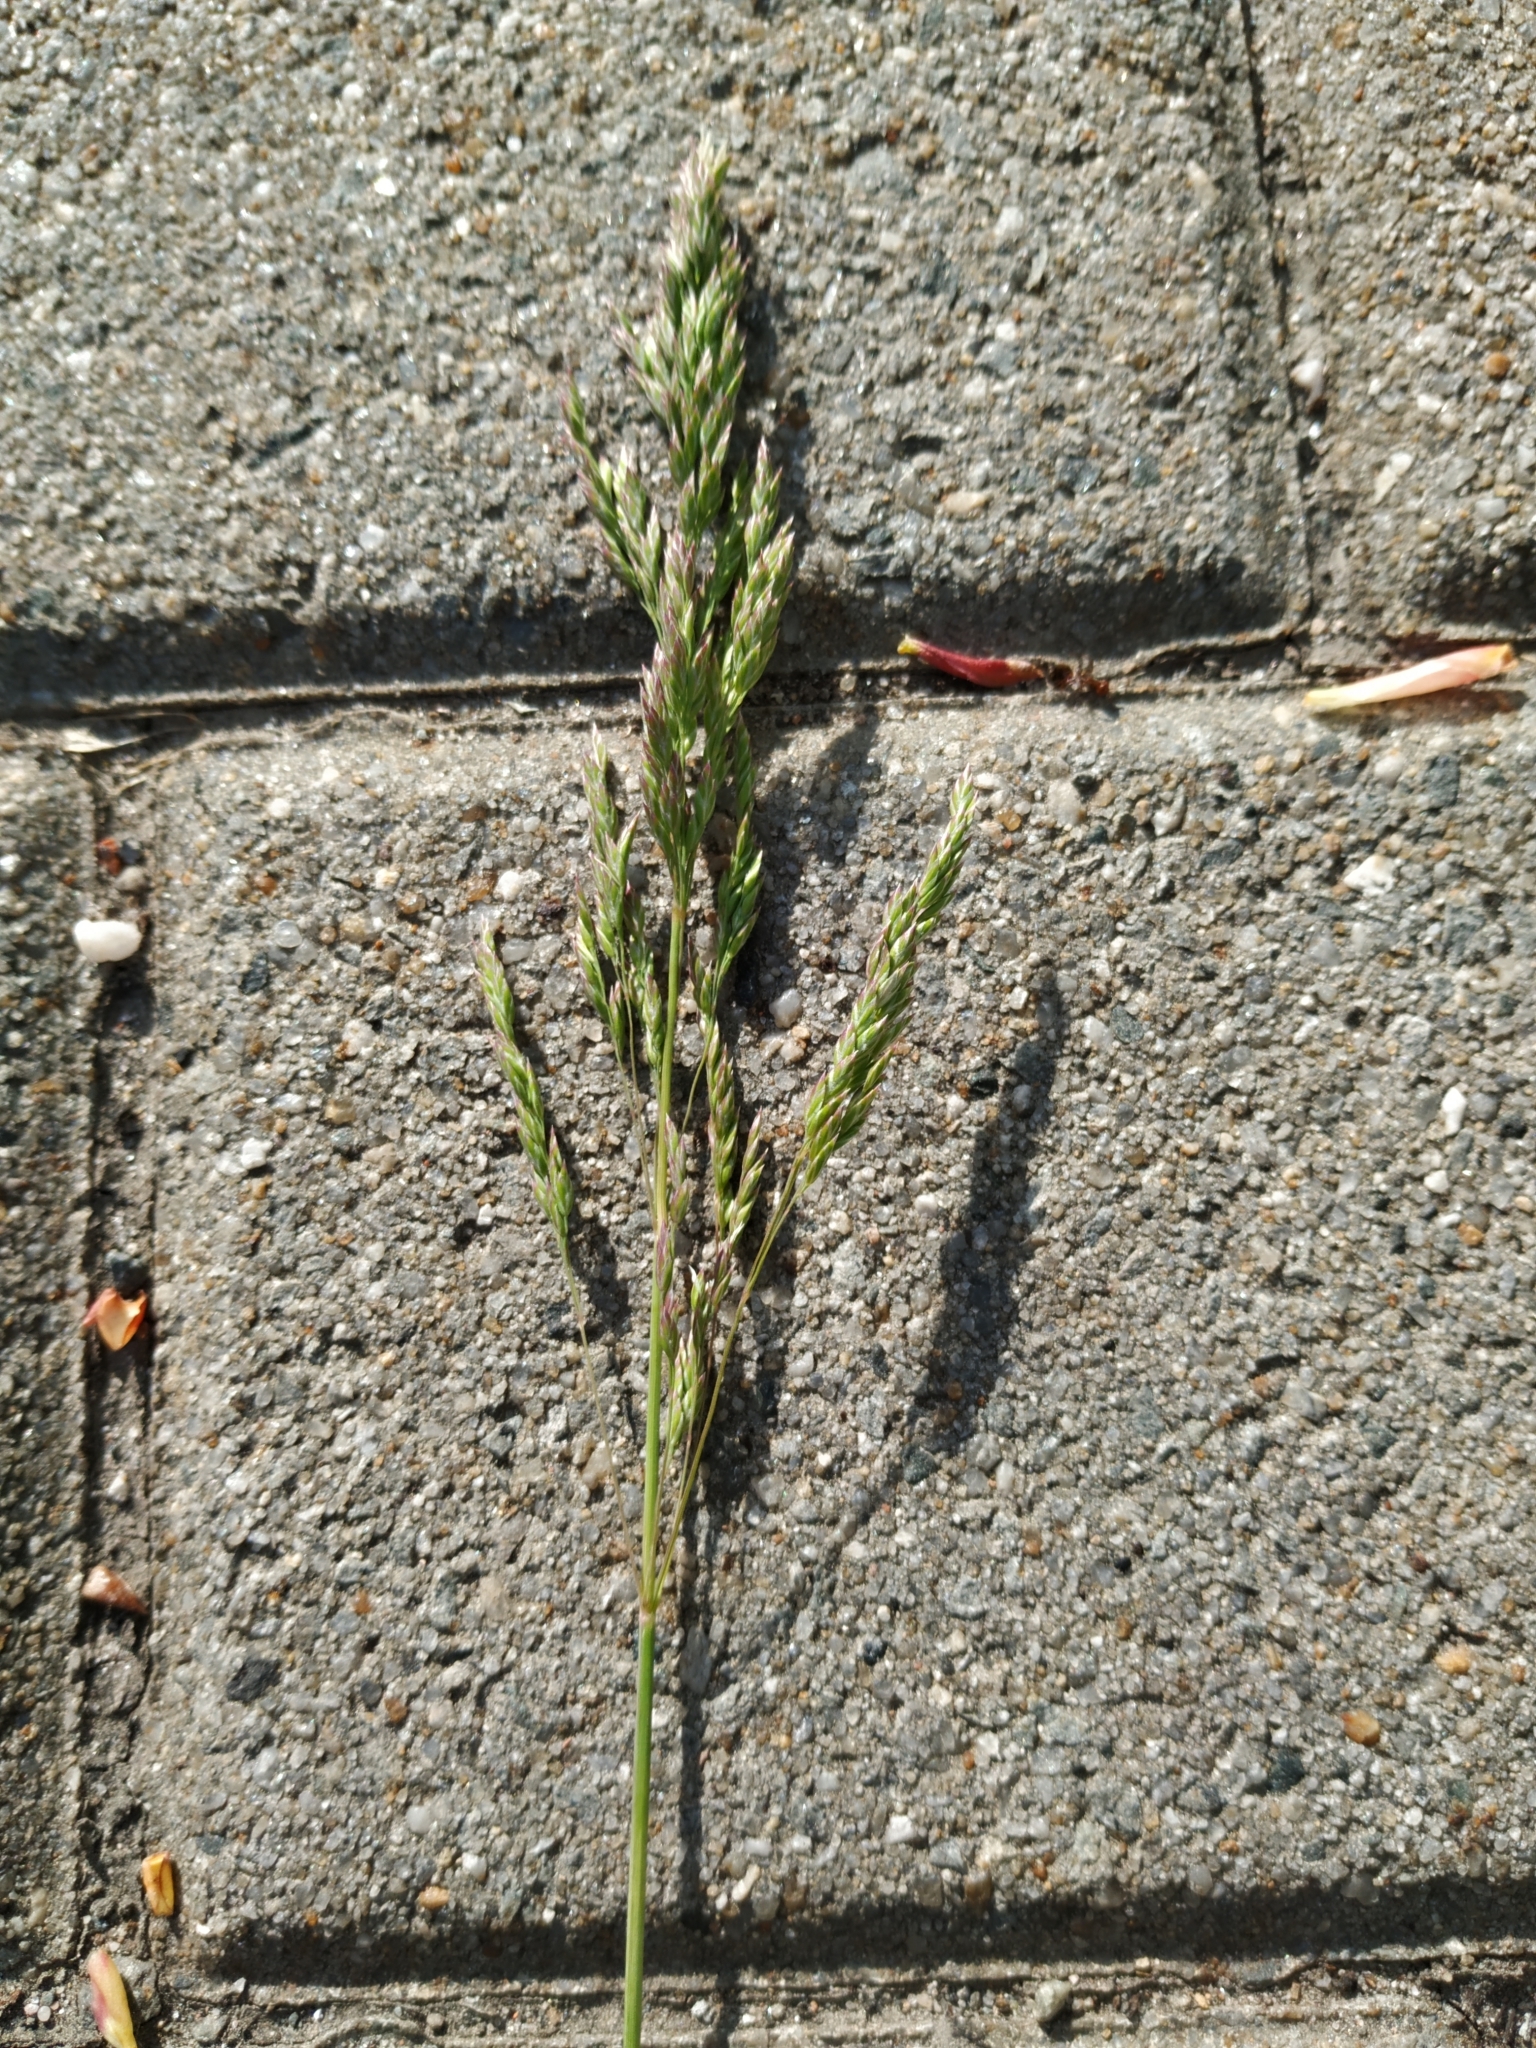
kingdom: Plantae
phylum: Tracheophyta
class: Liliopsida
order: Poales
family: Poaceae
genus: Poa
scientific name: Poa pratensis
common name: Kentucky bluegrass
